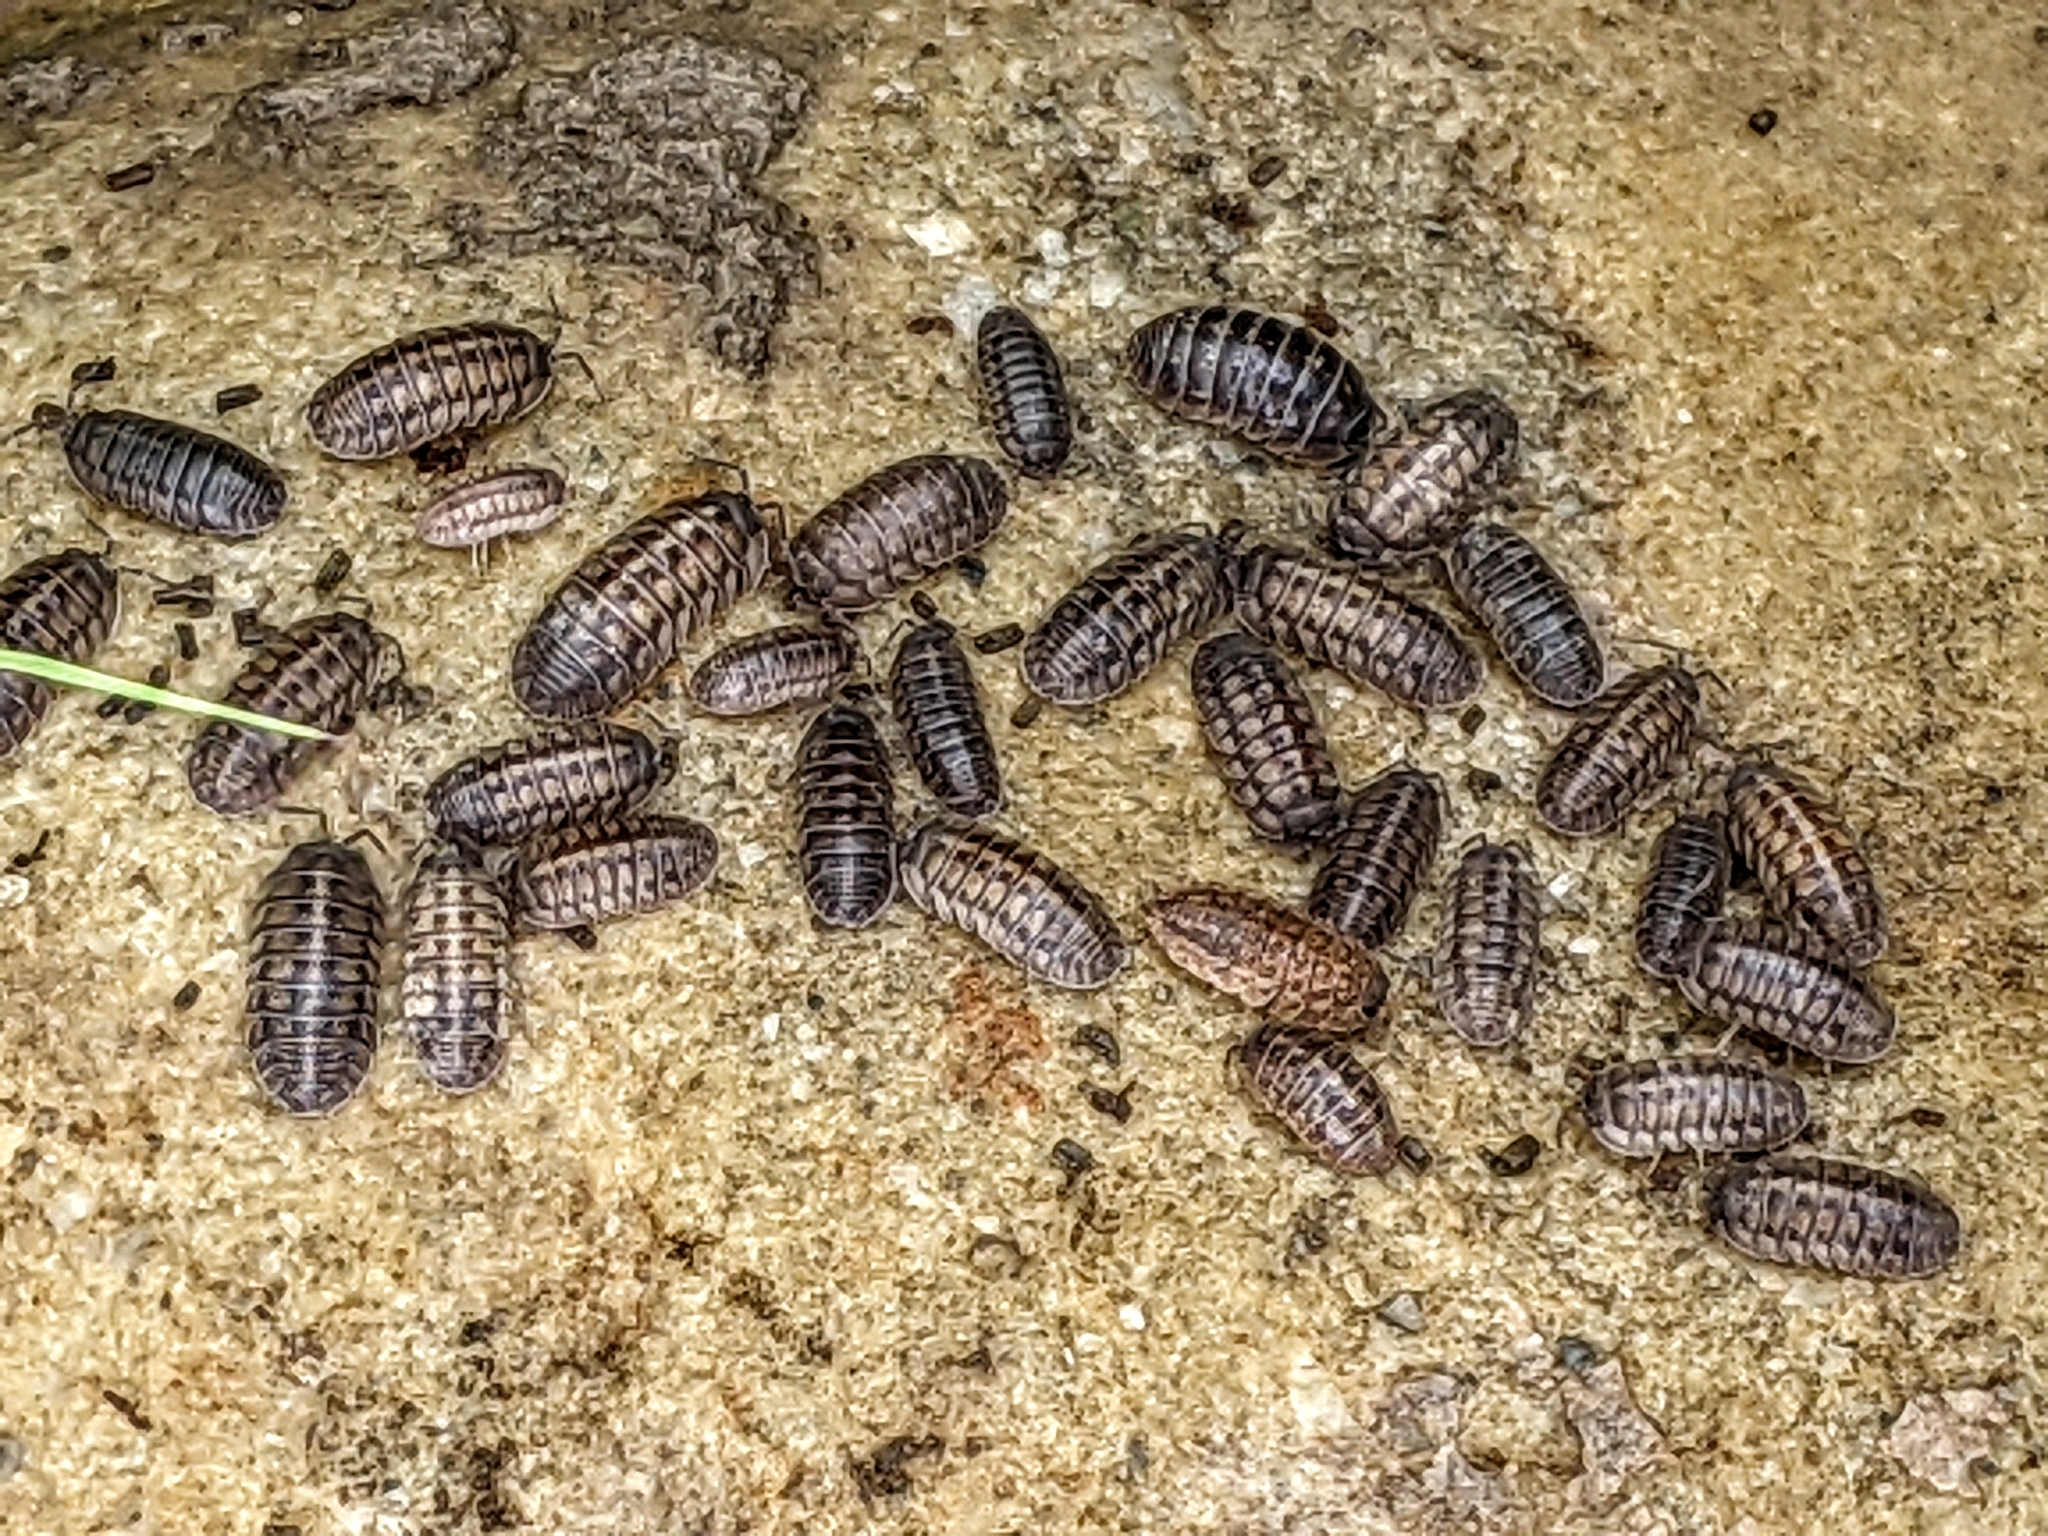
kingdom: Animalia
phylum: Arthropoda
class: Malacostraca
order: Isopoda
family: Armadillidiidae
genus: Armadillidium
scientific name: Armadillidium nasatum
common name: Isopod
